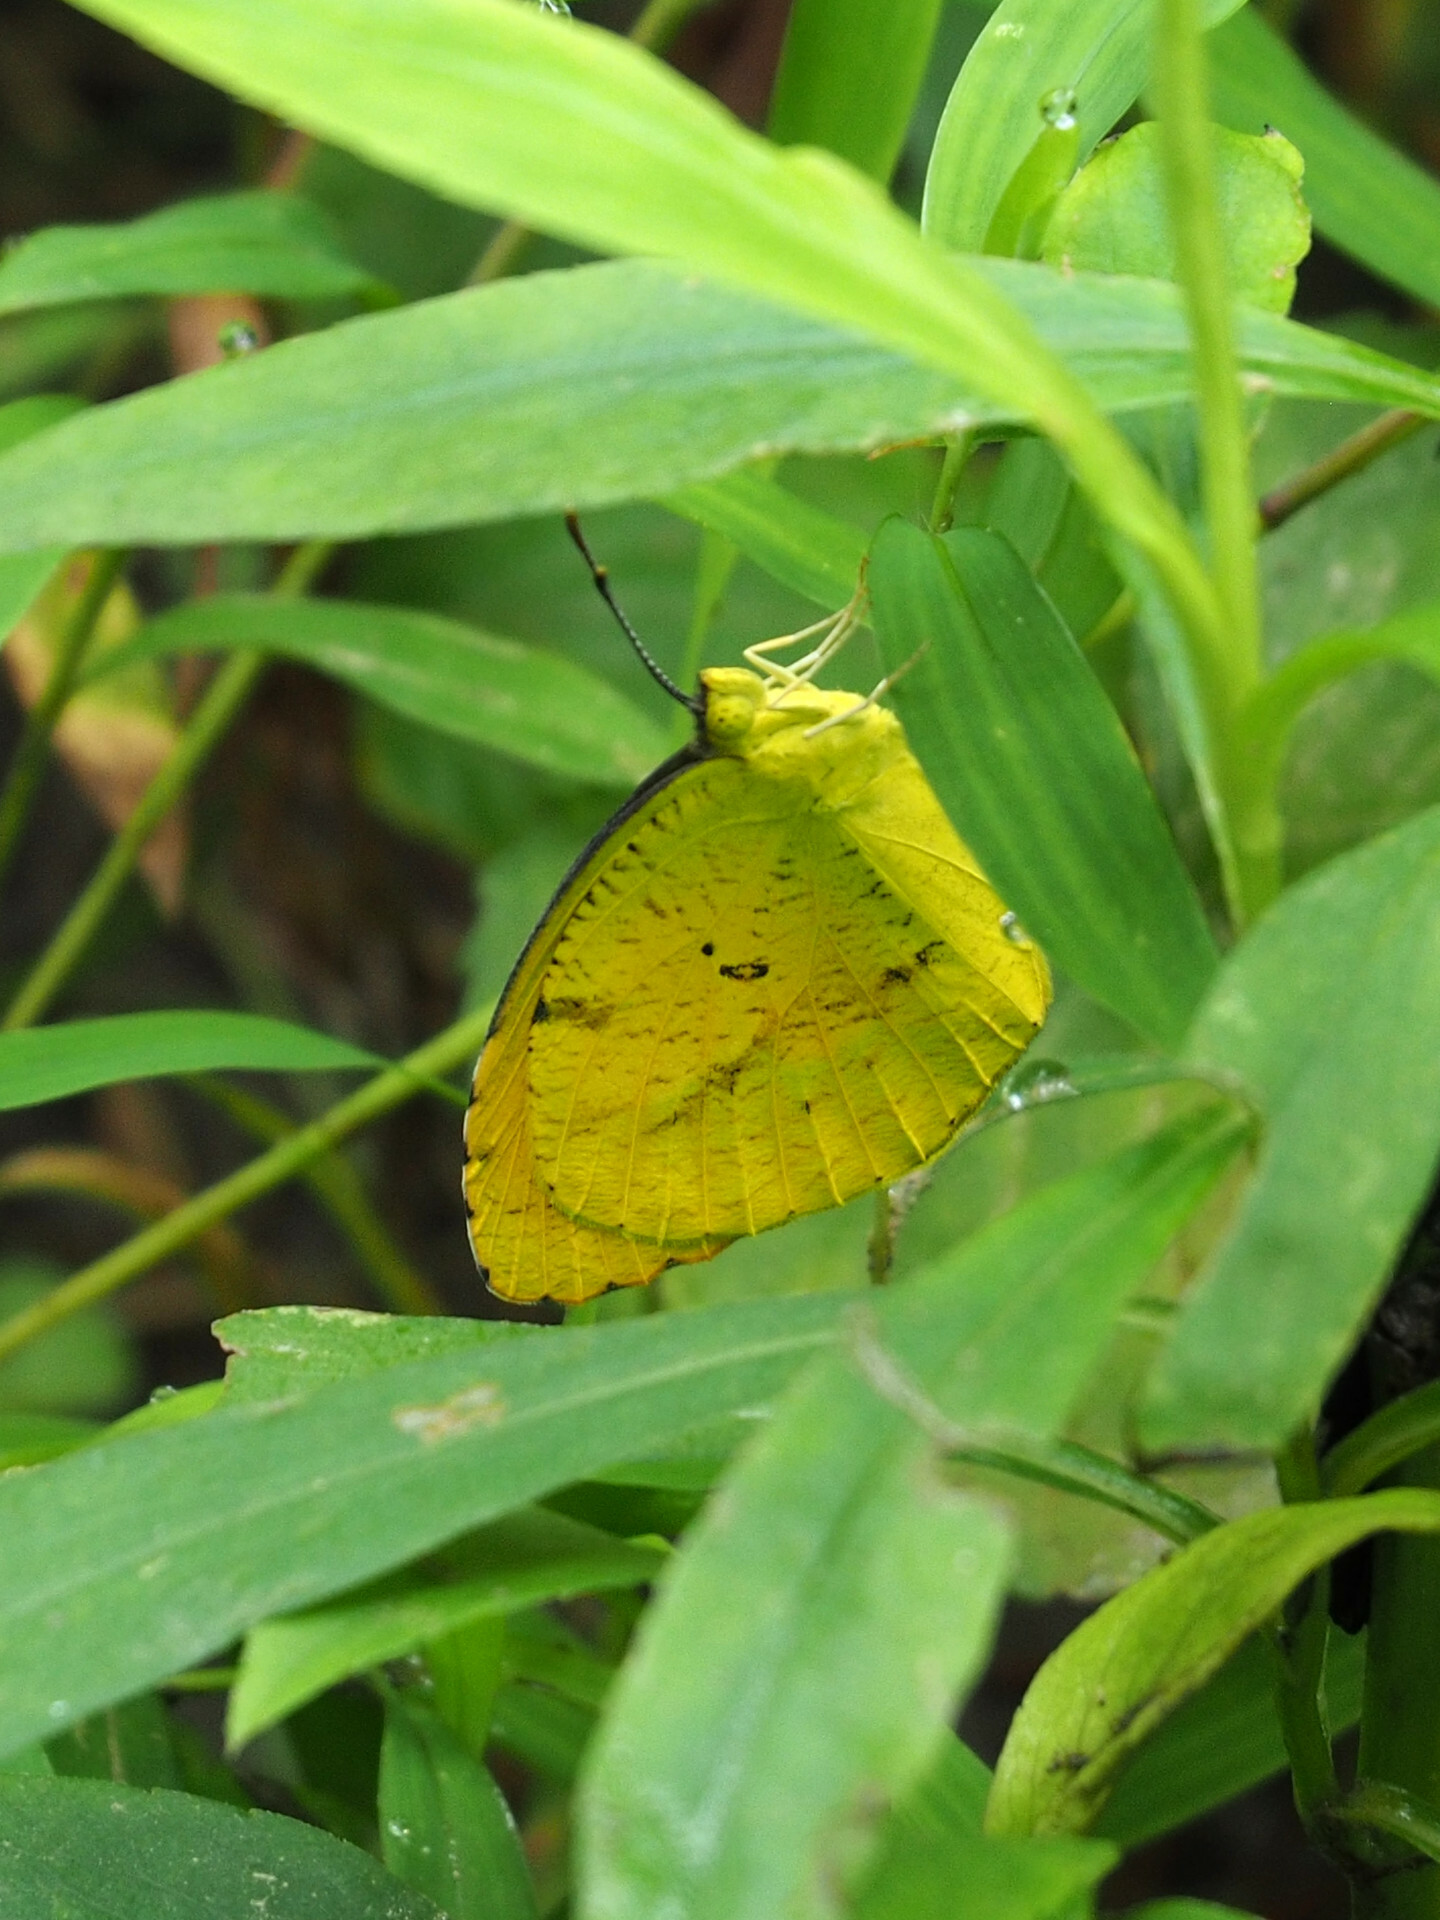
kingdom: Animalia
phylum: Arthropoda
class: Insecta
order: Lepidoptera
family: Pieridae
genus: Abaeis
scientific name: Abaeis nicippe
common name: Sleepy orange
